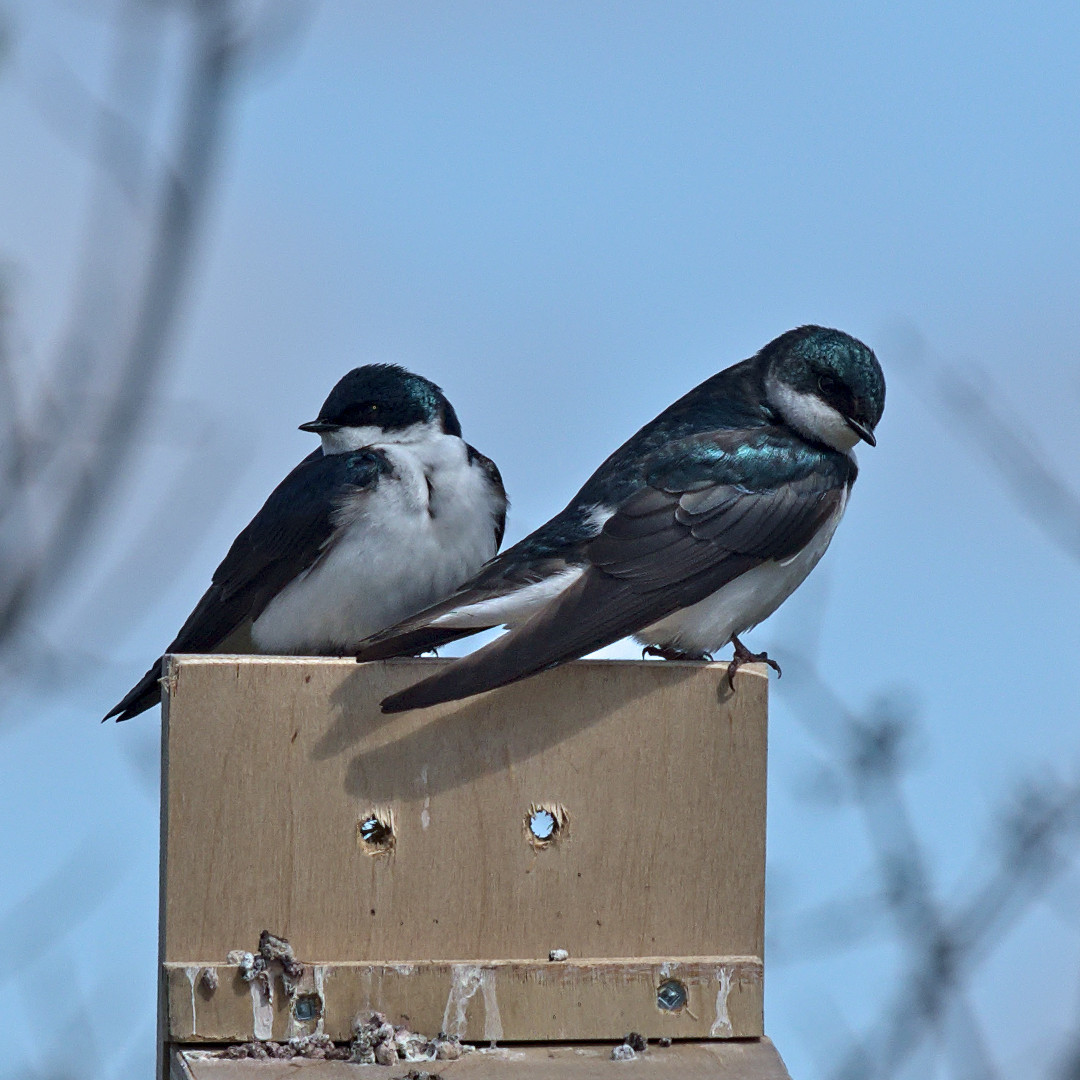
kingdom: Animalia
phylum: Chordata
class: Aves
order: Passeriformes
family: Hirundinidae
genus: Tachycineta
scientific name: Tachycineta bicolor
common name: Tree swallow
